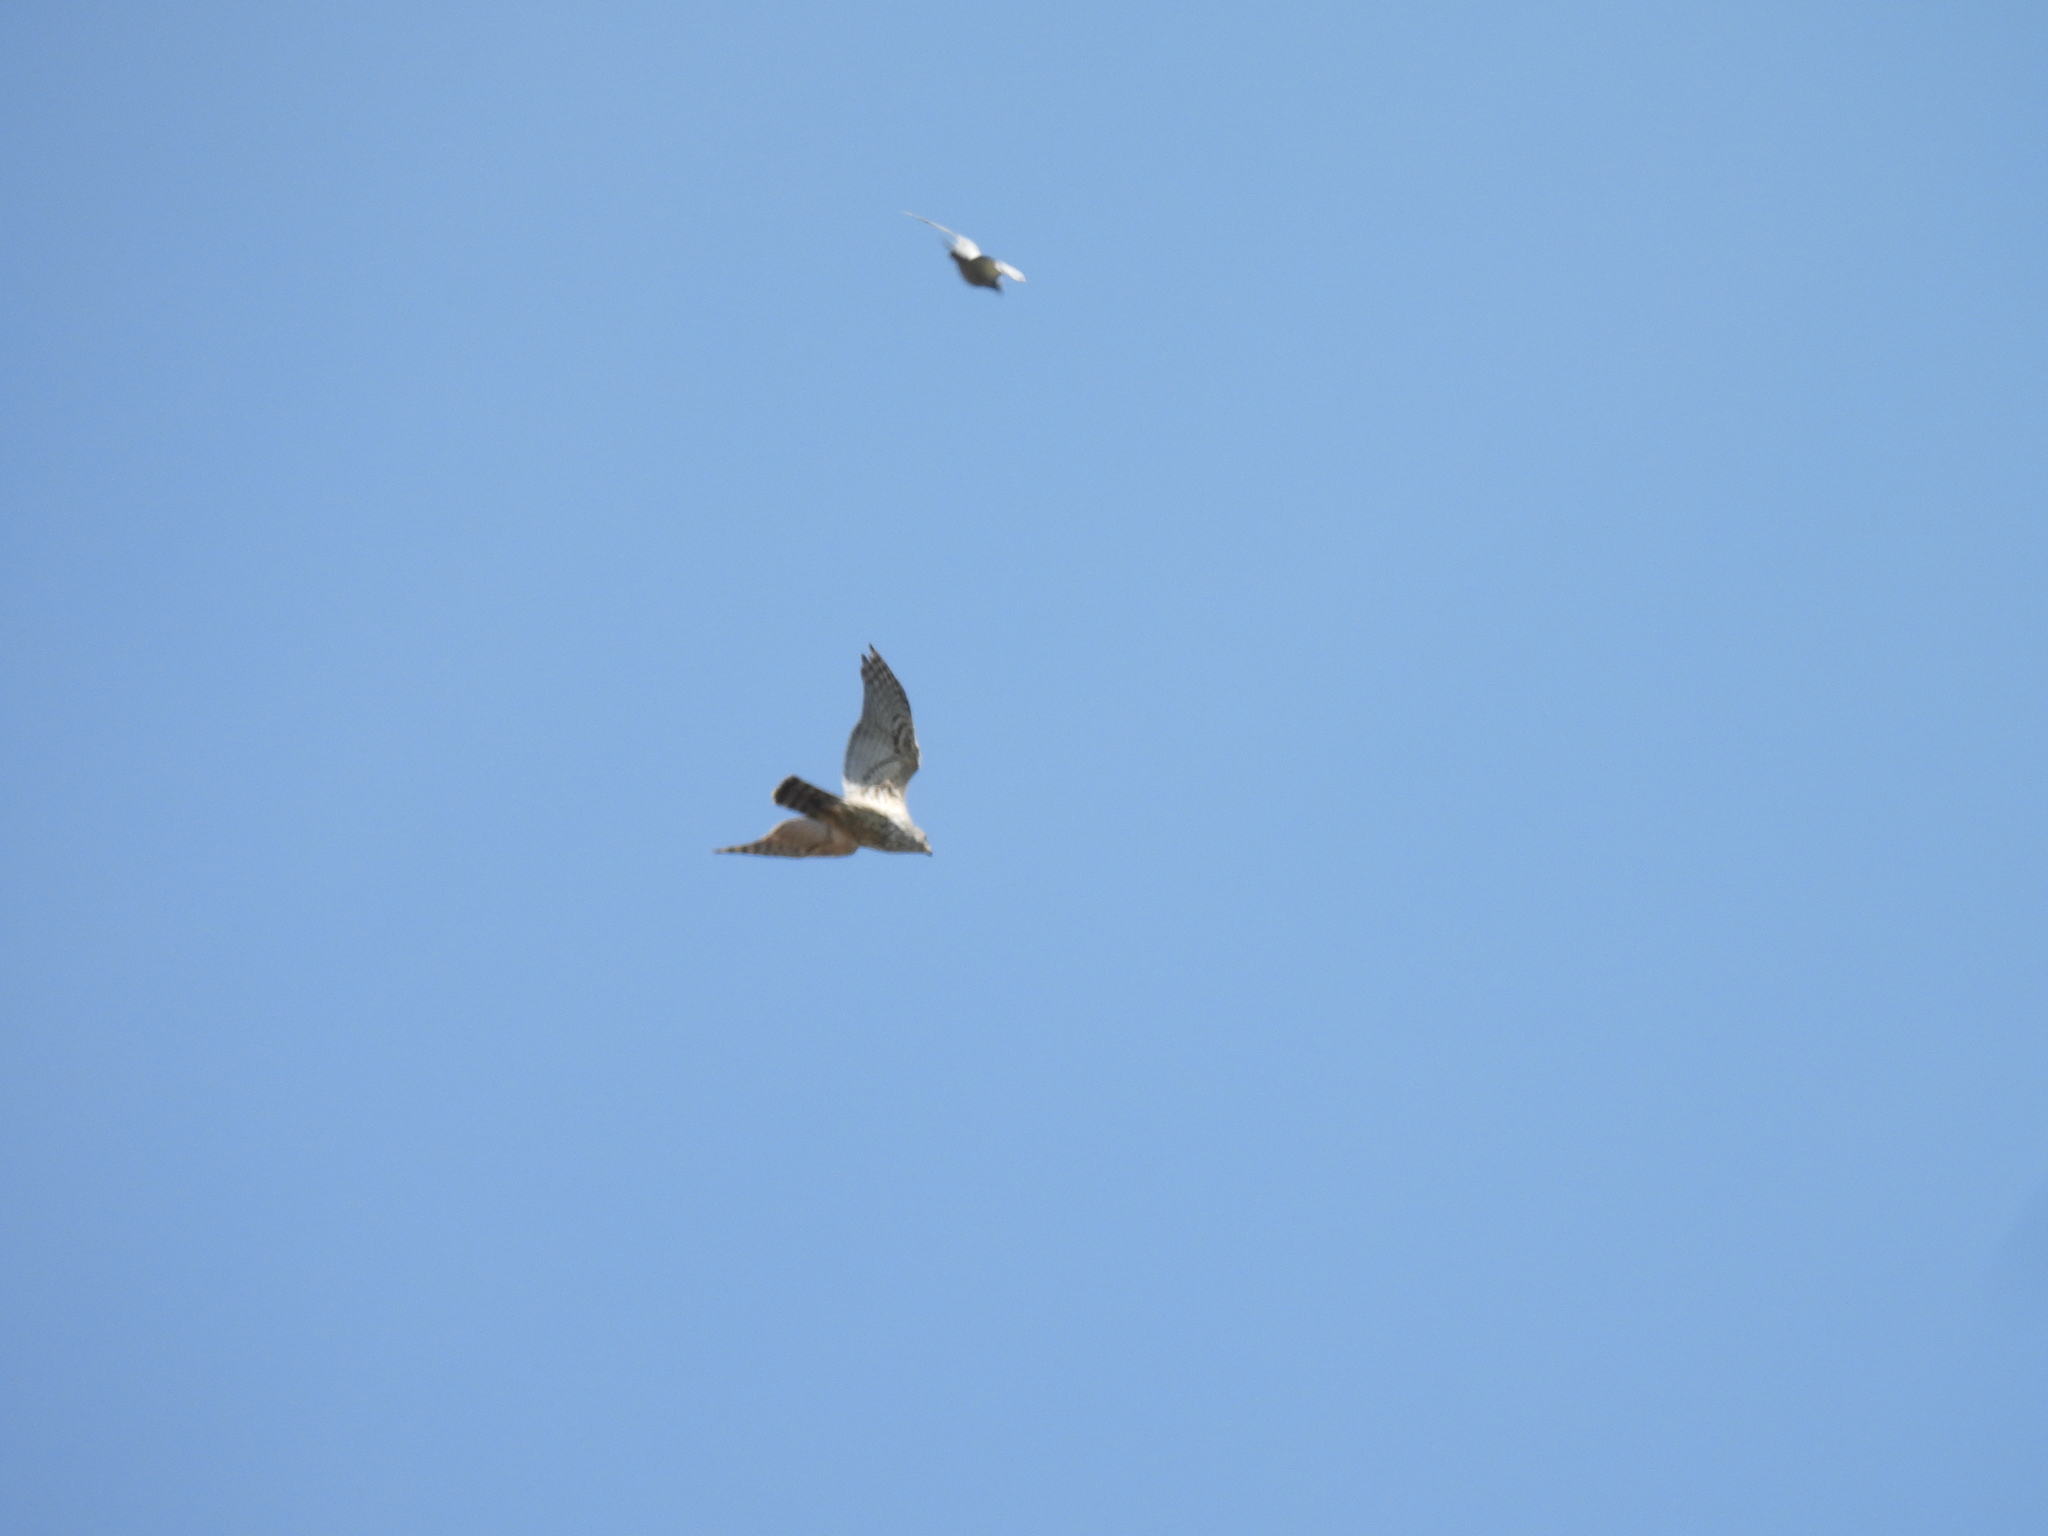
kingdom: Animalia
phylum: Chordata
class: Aves
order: Accipitriformes
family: Accipitridae
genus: Accipiter
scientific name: Accipiter gentilis
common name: Northern goshawk
